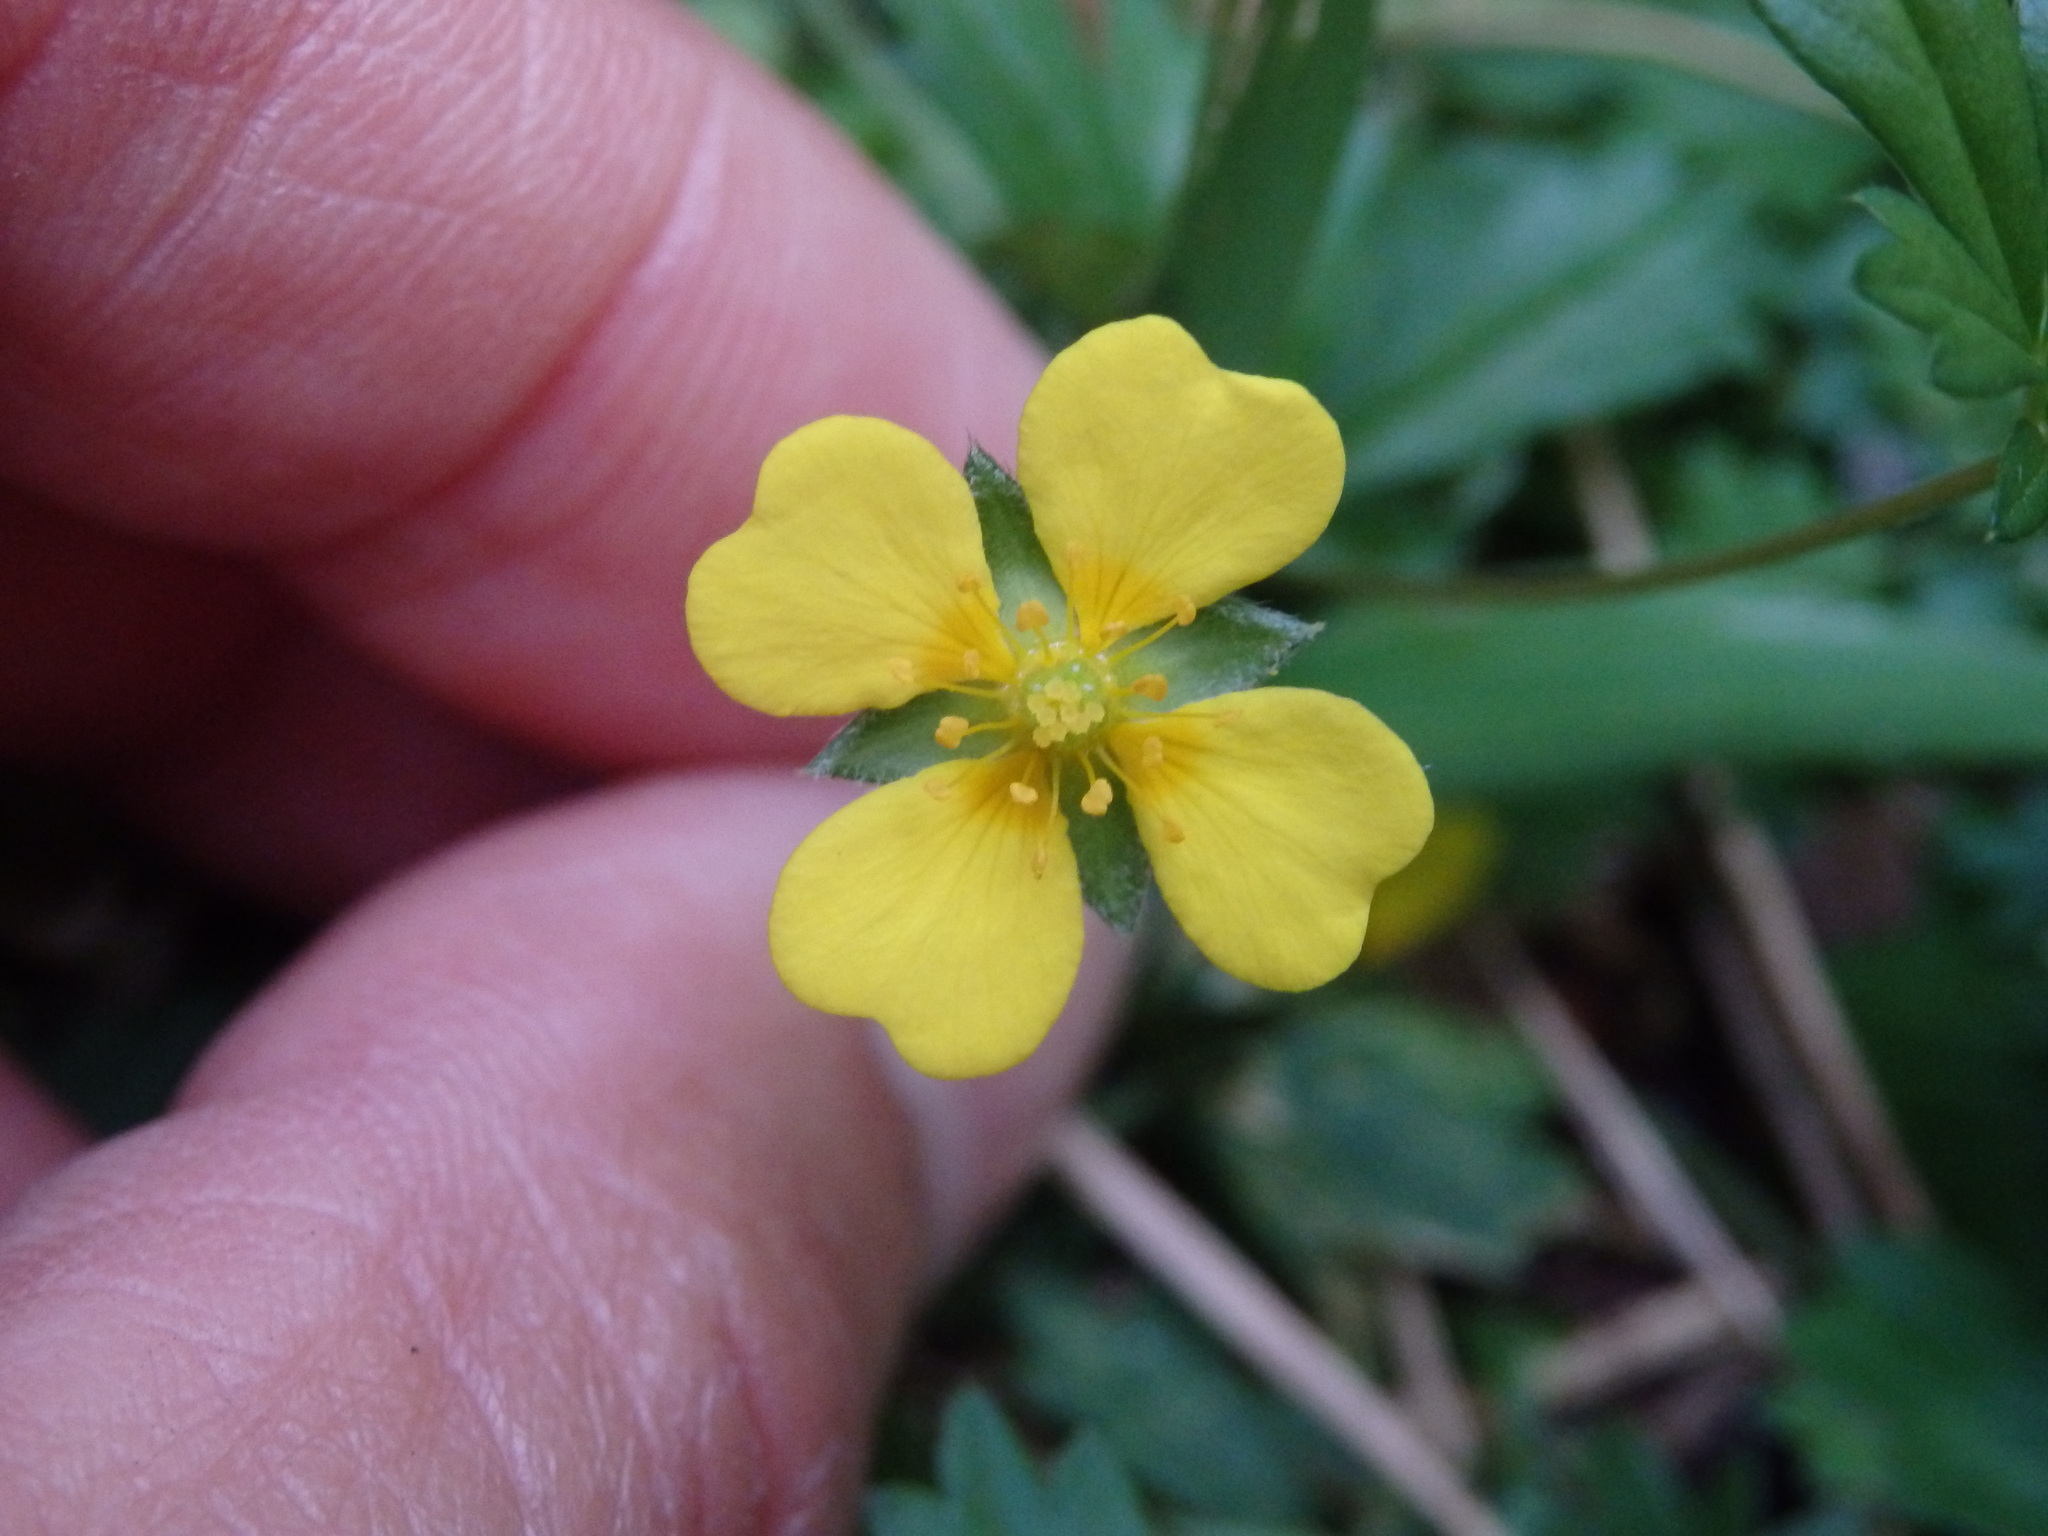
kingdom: Plantae
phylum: Tracheophyta
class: Magnoliopsida
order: Rosales
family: Rosaceae
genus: Potentilla
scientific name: Potentilla erecta
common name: Tormentil
